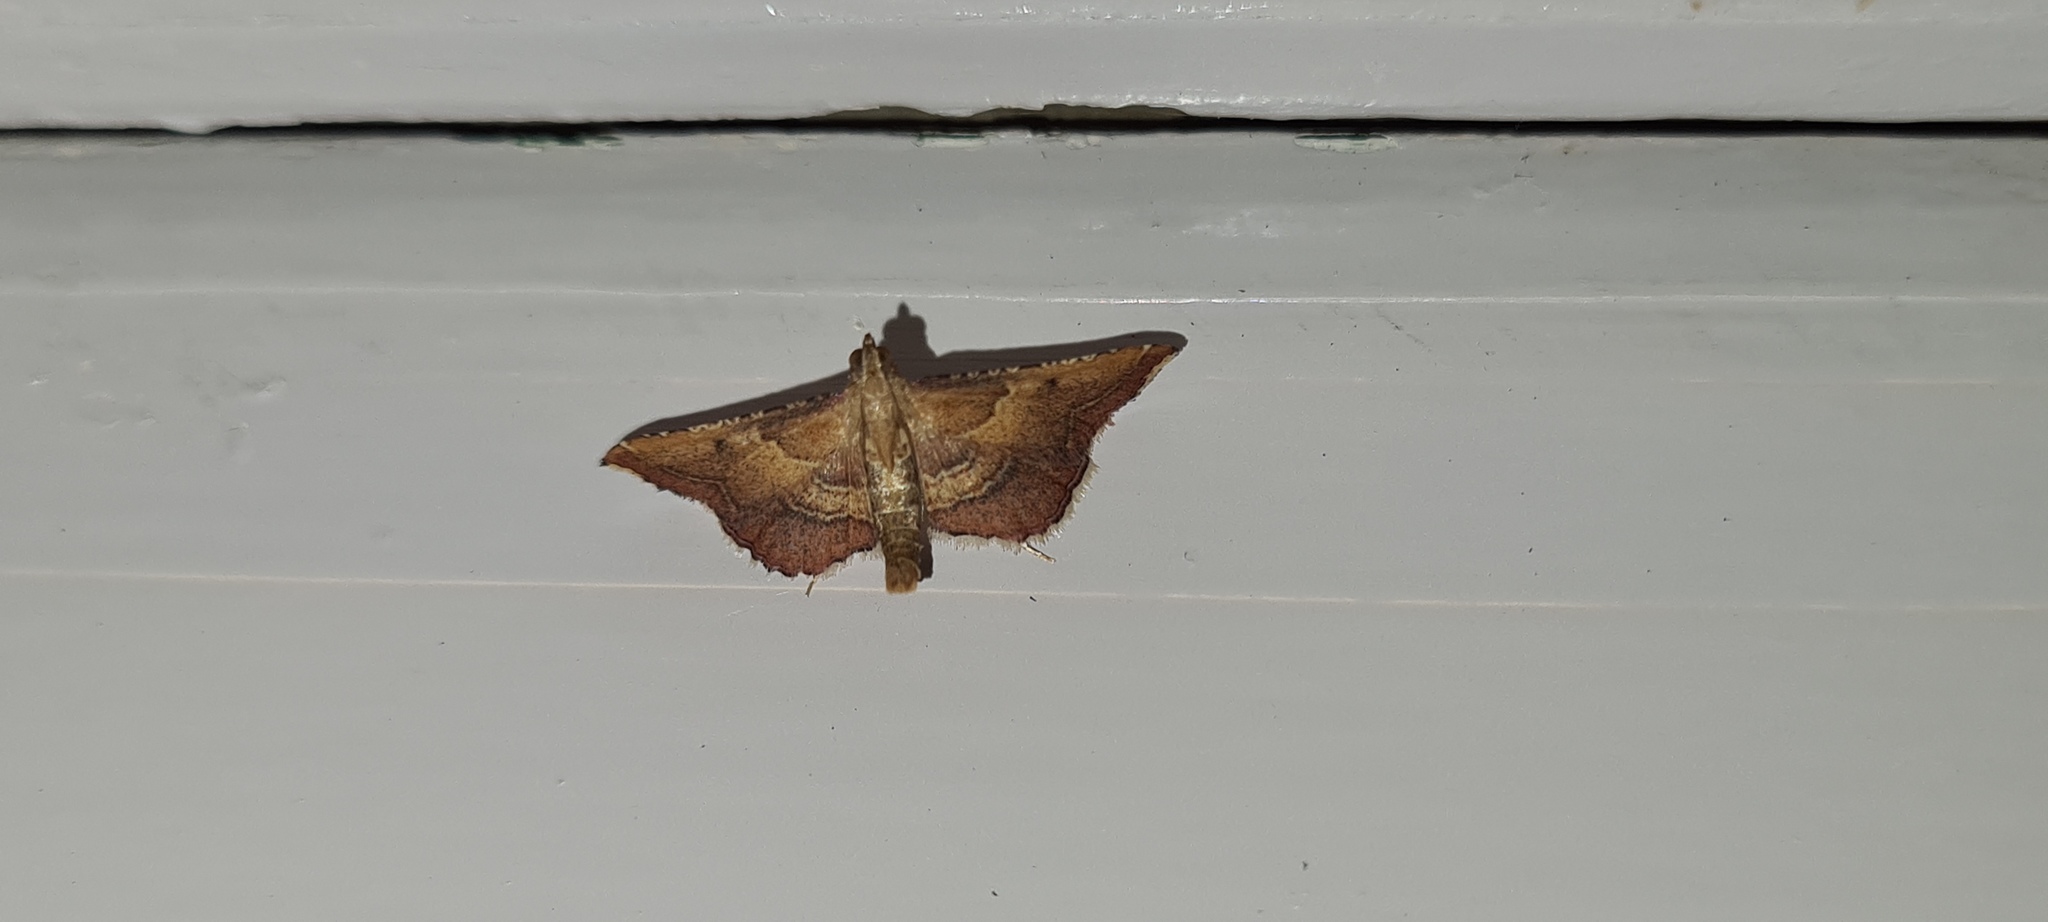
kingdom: Animalia
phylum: Arthropoda
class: Insecta
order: Lepidoptera
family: Pyralidae
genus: Endotricha
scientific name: Endotricha flammealis
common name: Rosy tabby
